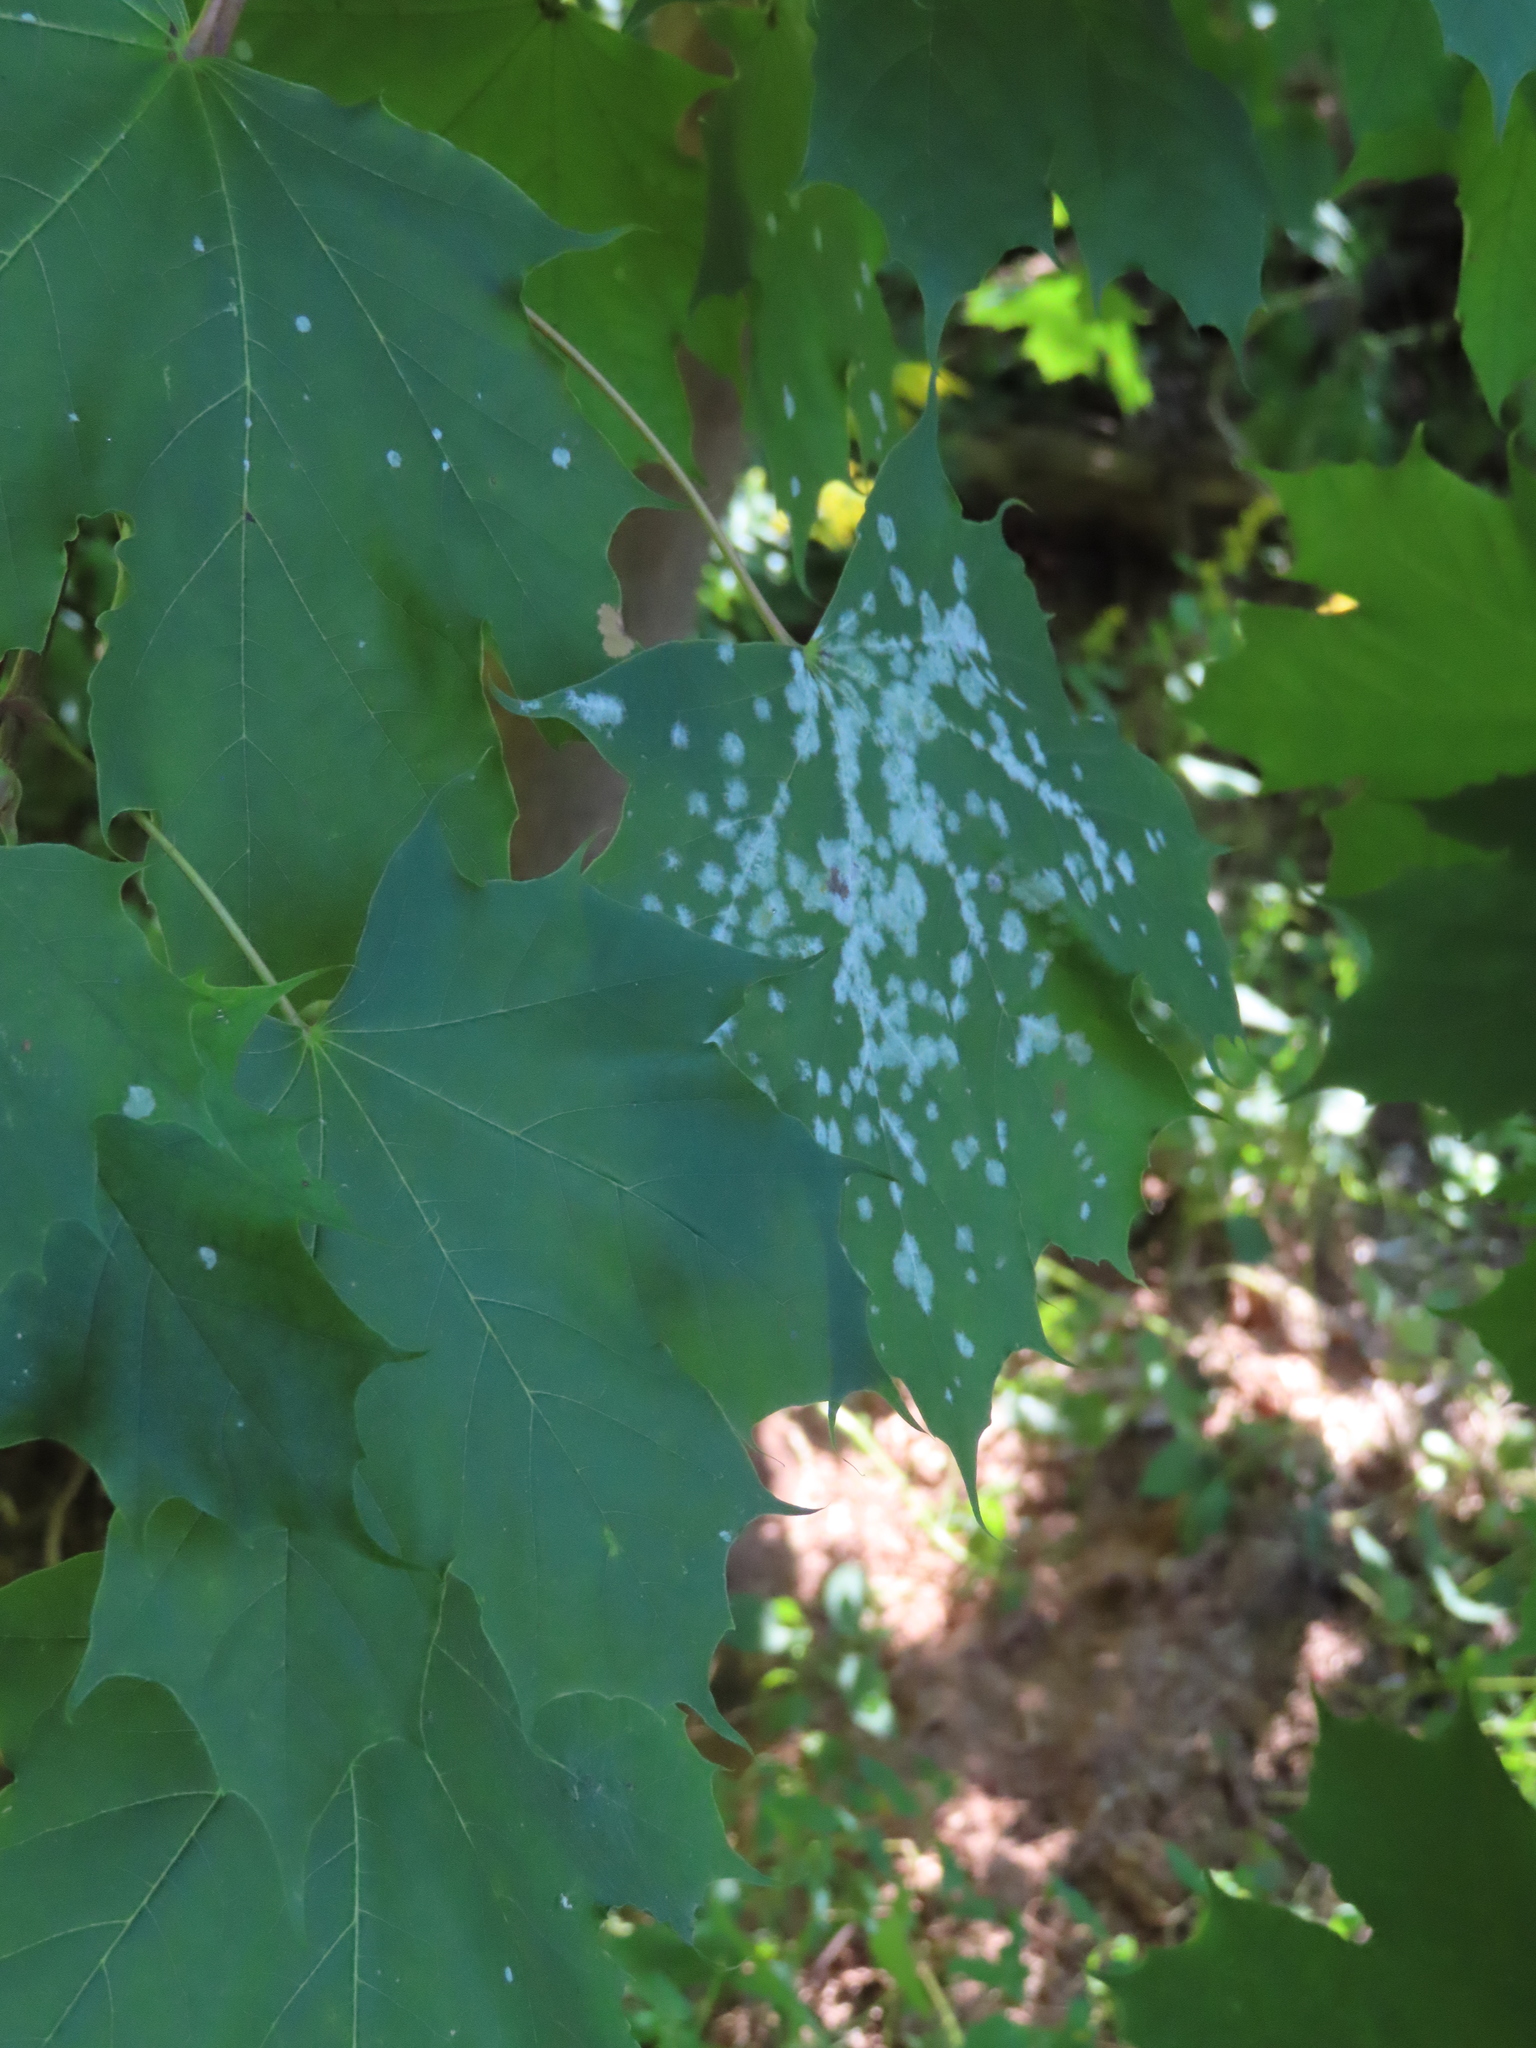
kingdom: Fungi
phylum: Ascomycota
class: Leotiomycetes
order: Helotiales
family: Erysiphaceae
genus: Sawadaea
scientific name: Sawadaea tulasnei
